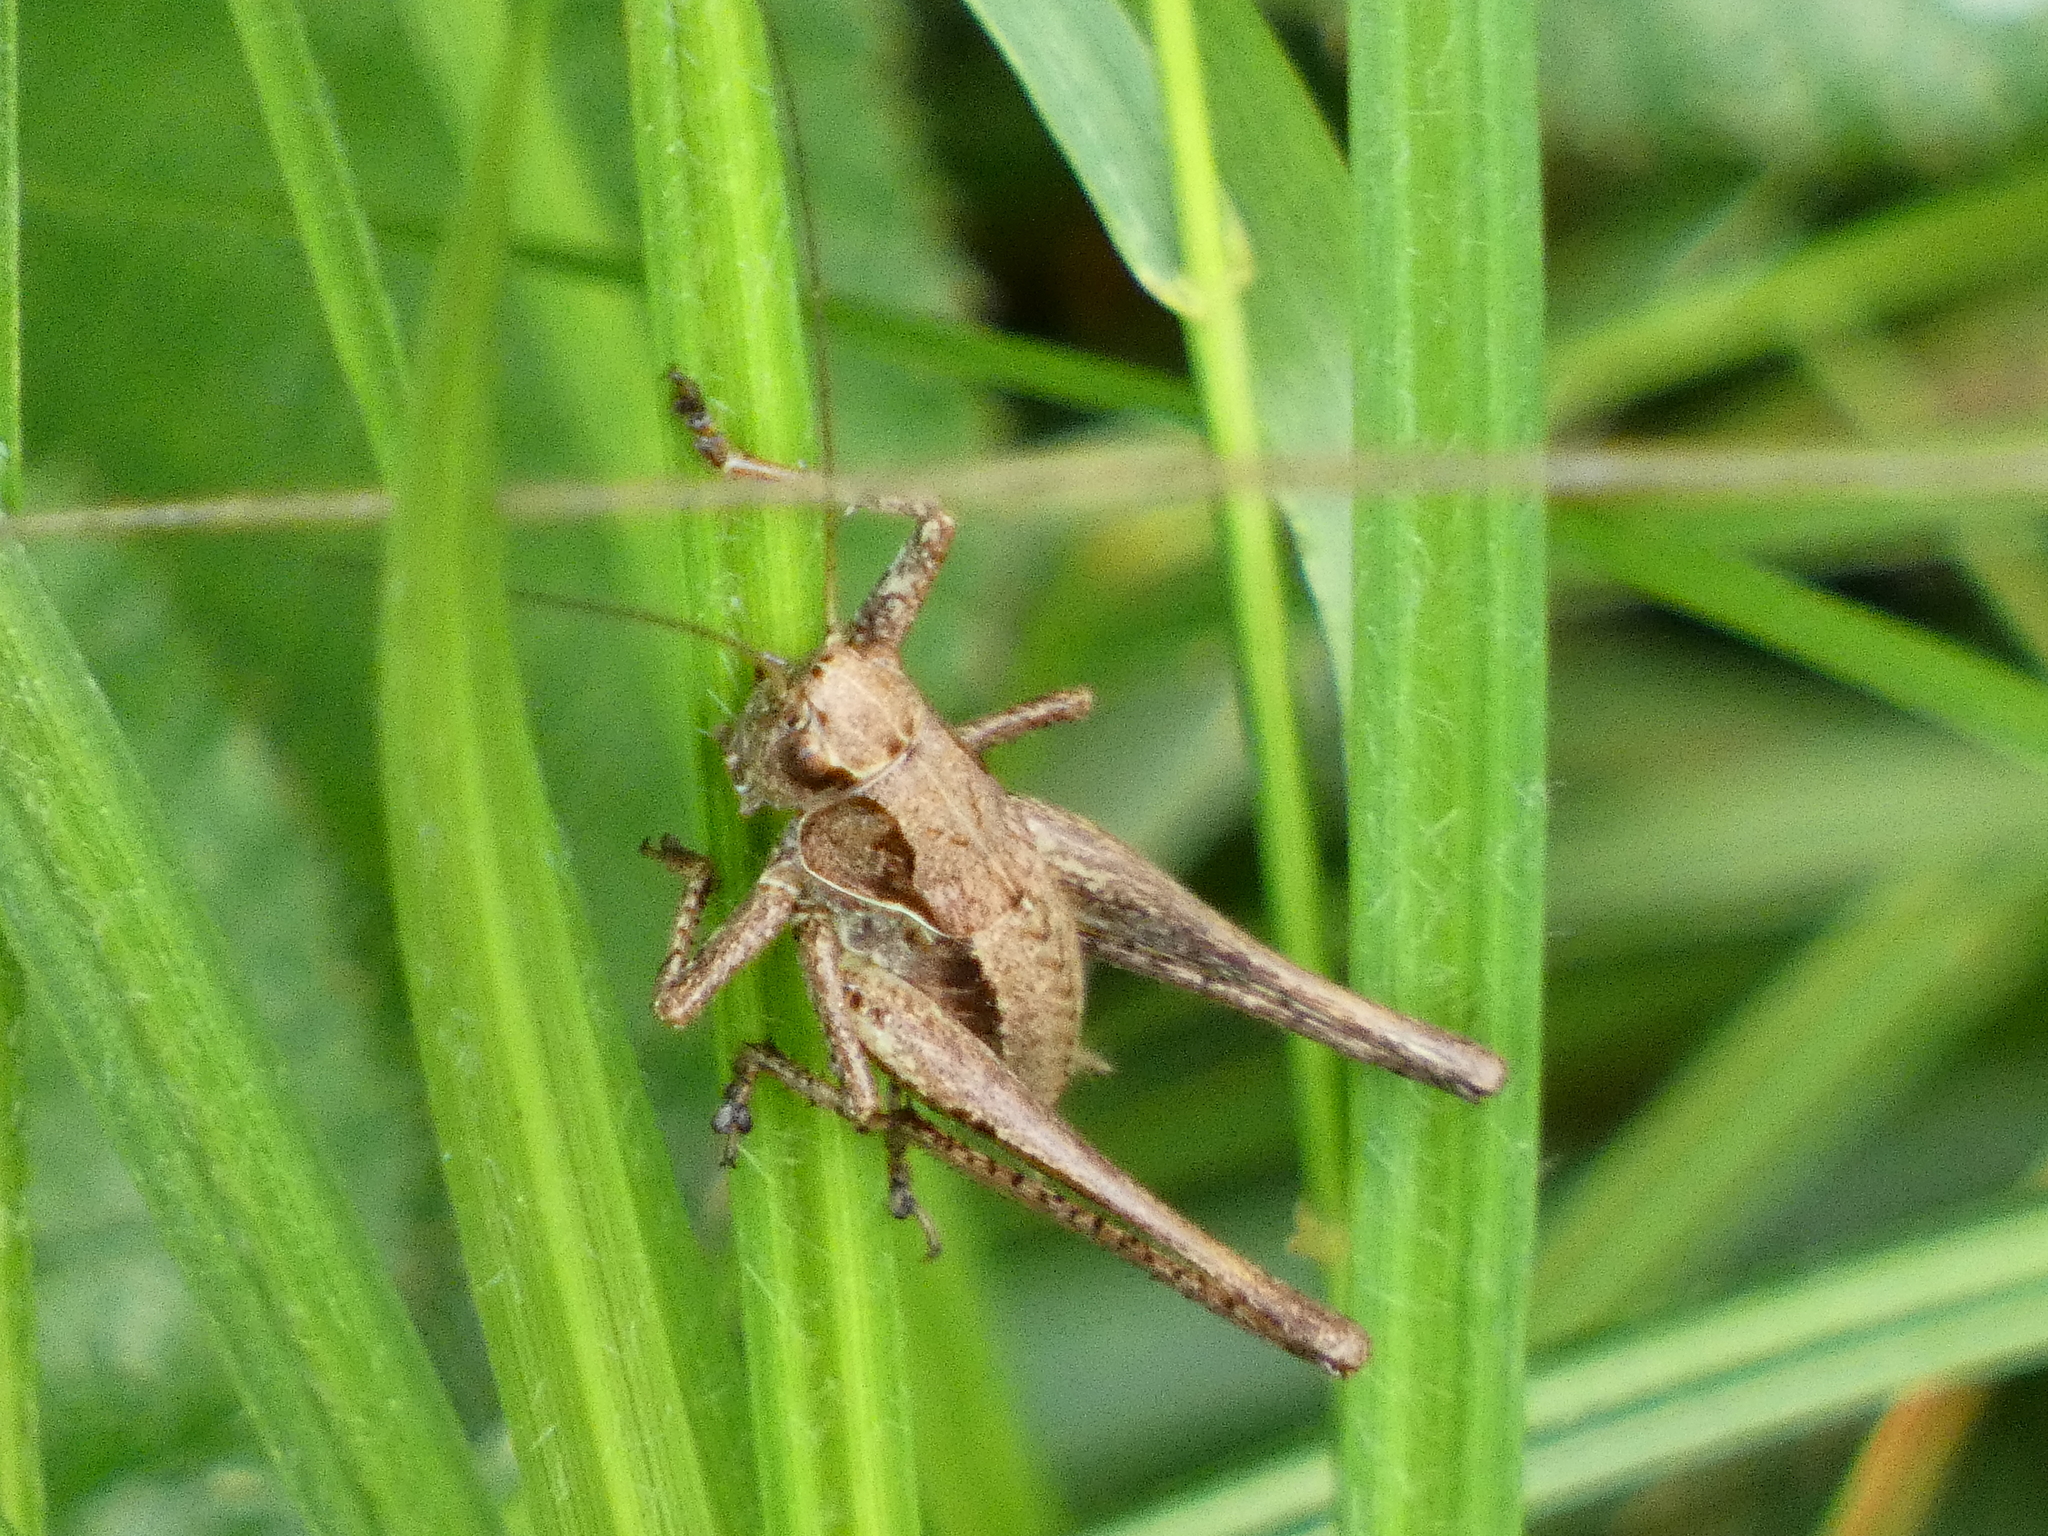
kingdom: Animalia
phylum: Arthropoda
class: Insecta
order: Orthoptera
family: Tettigoniidae
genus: Pholidoptera
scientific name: Pholidoptera griseoaptera
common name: Dark bush-cricket
